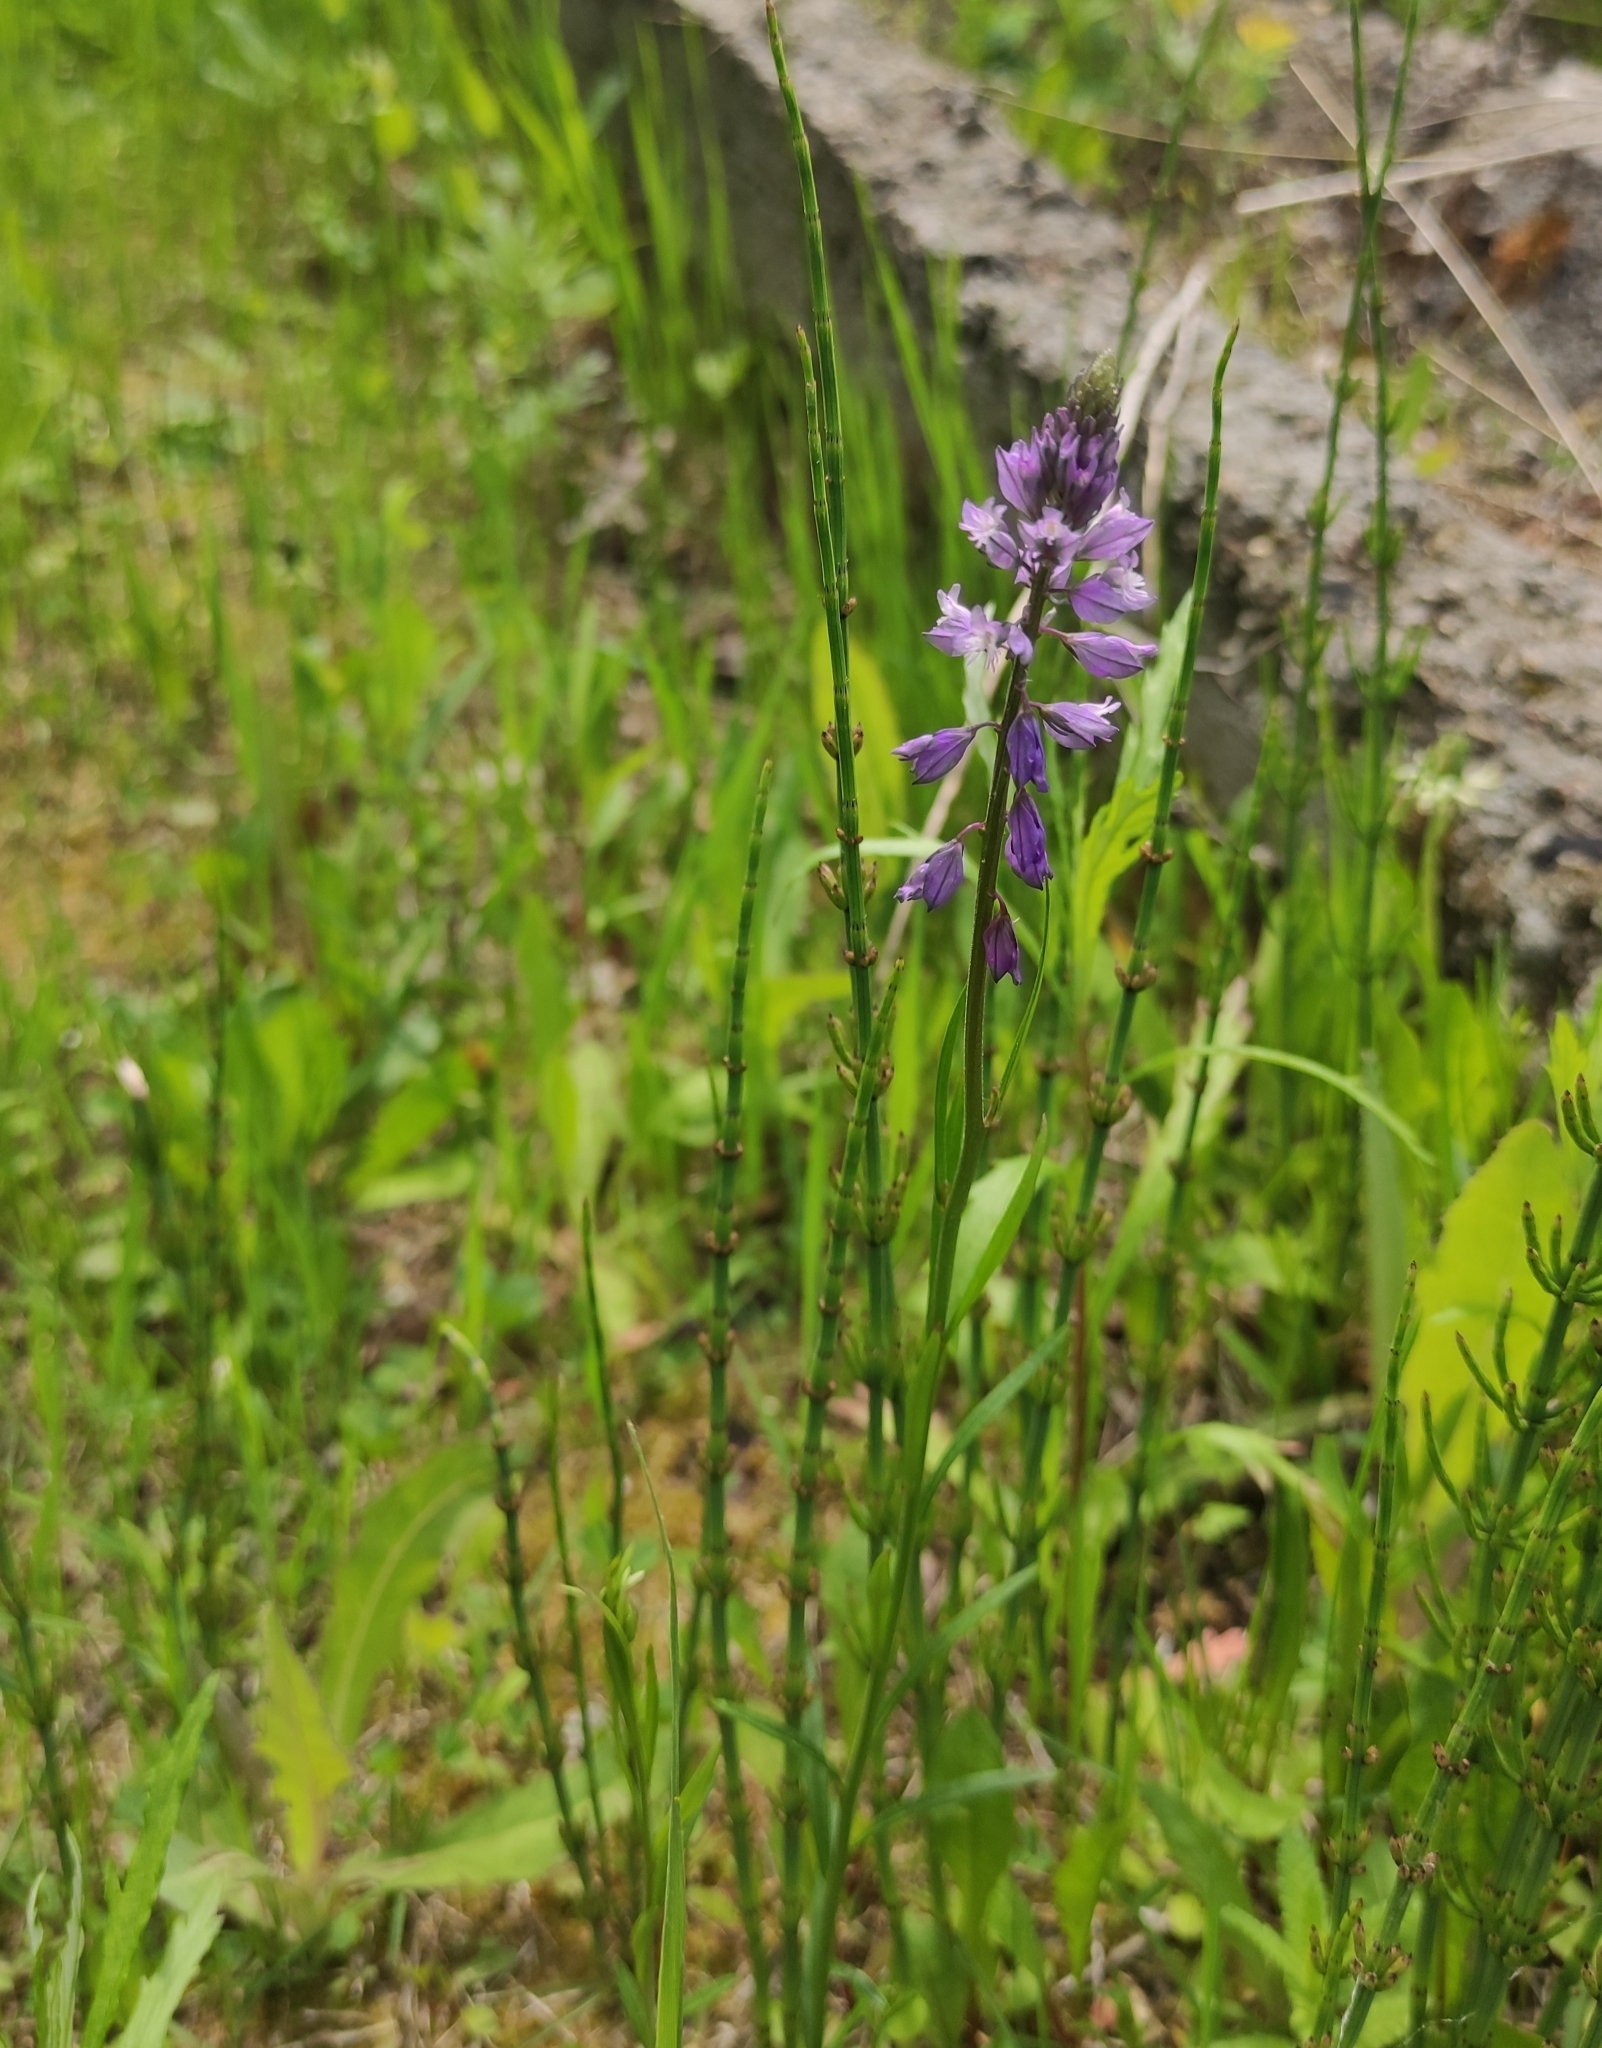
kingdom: Plantae
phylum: Tracheophyta
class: Magnoliopsida
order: Fabales
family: Polygalaceae
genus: Polygala
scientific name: Polygala comosa
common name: Tufted milkwort
